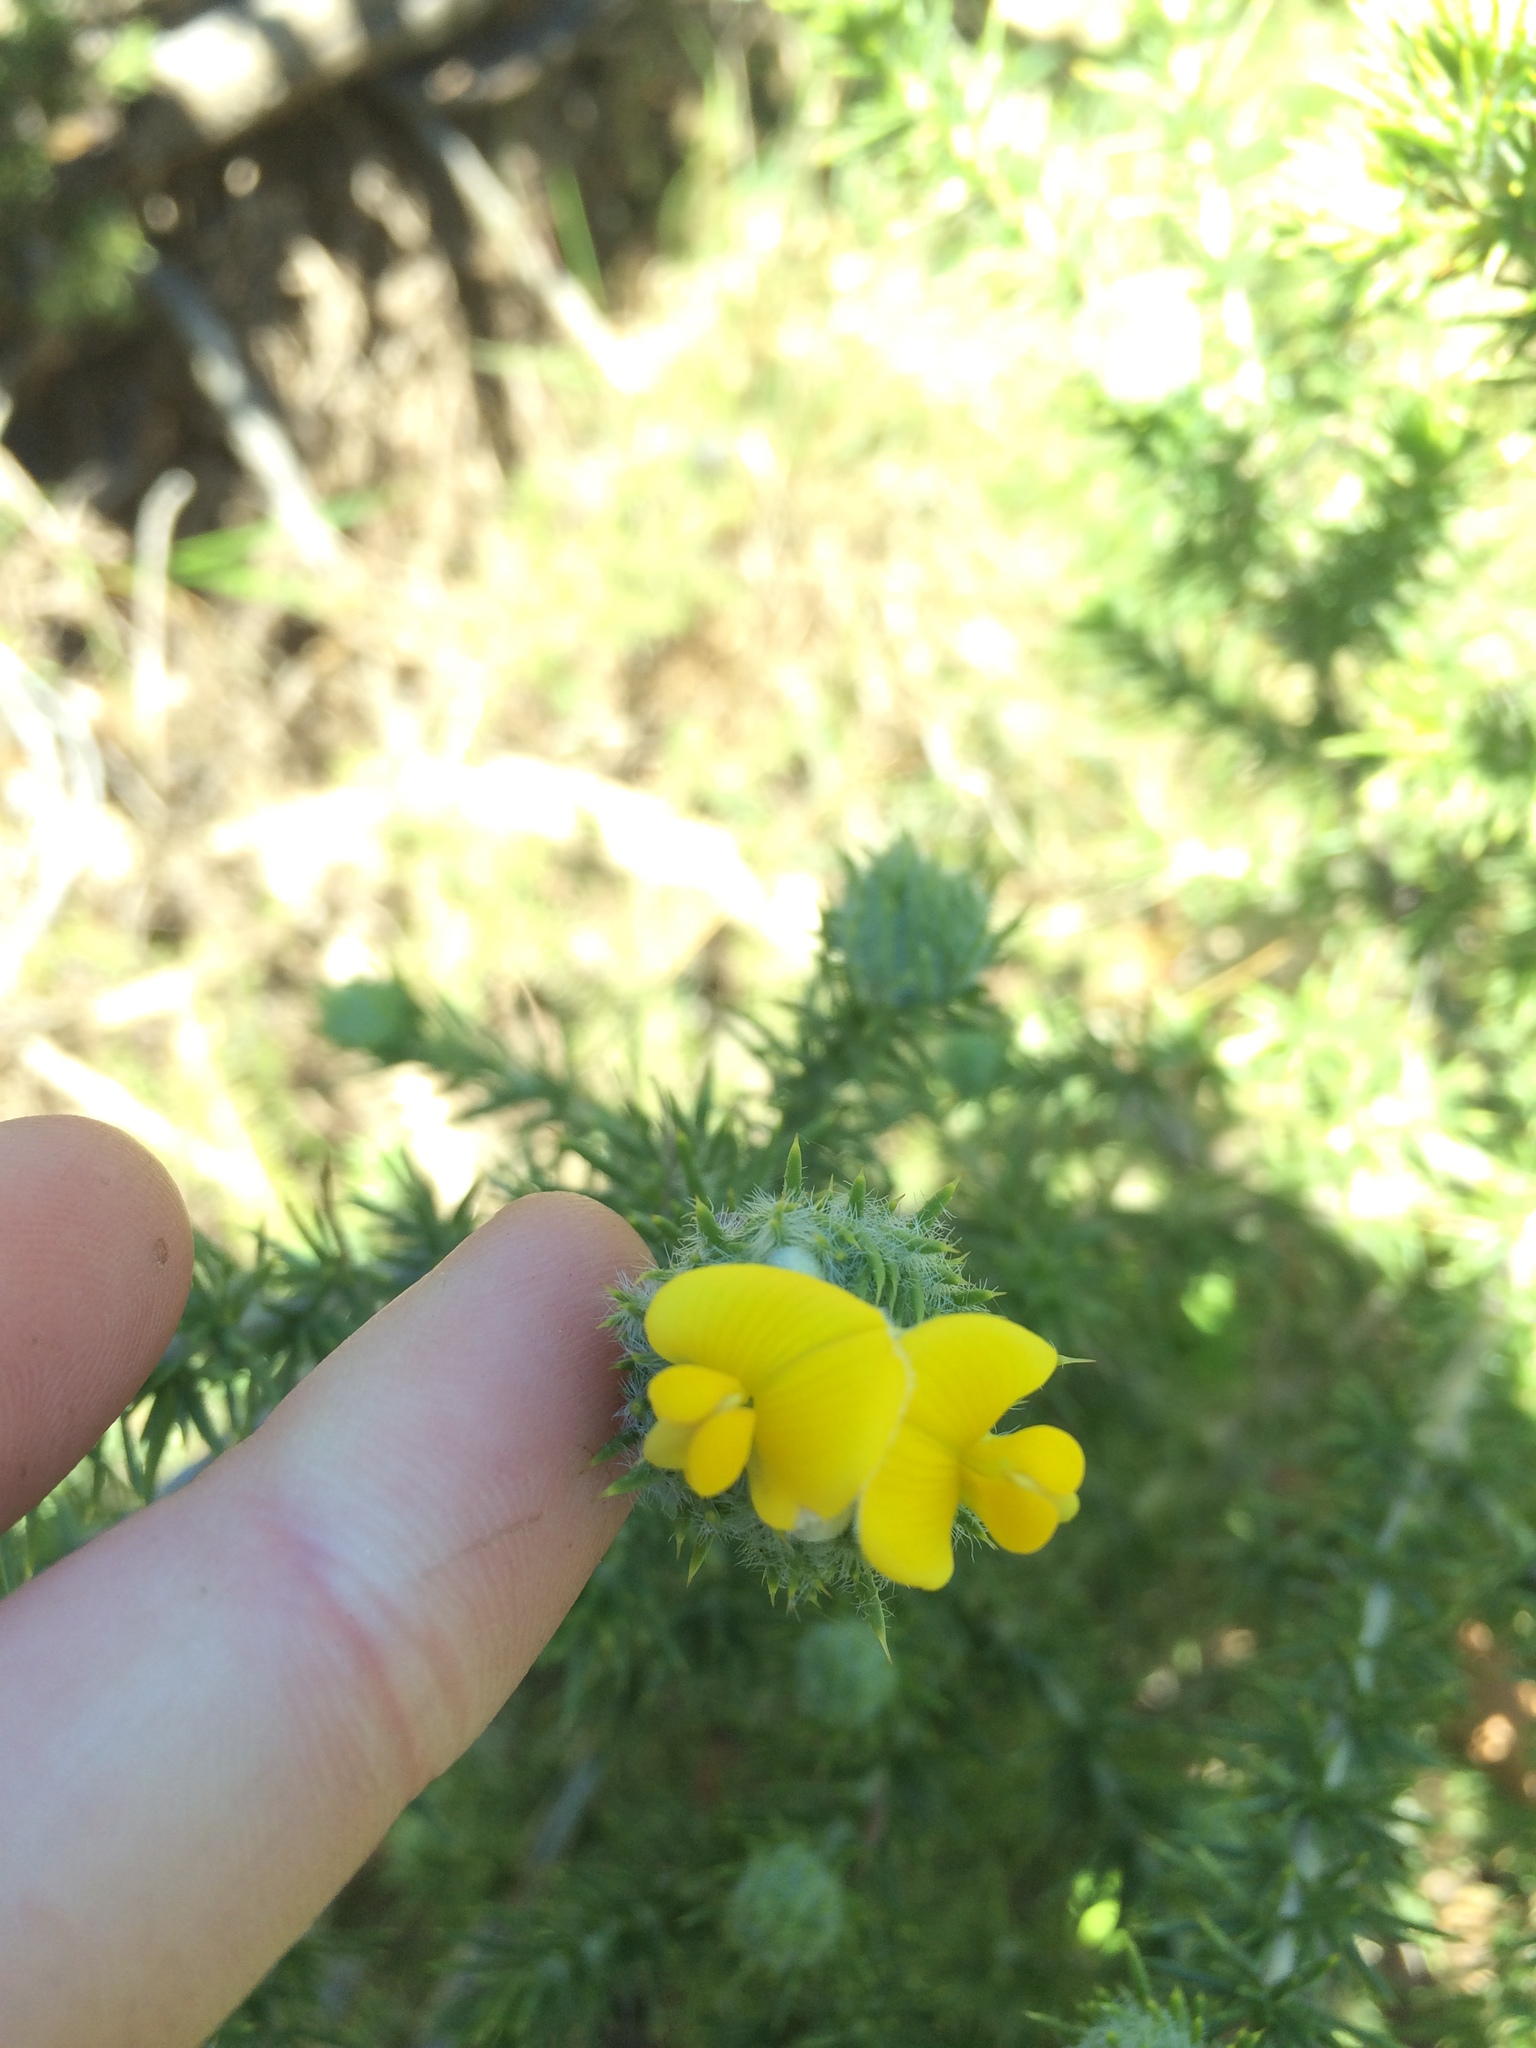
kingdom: Plantae
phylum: Tracheophyta
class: Magnoliopsida
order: Fabales
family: Fabaceae
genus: Aspalathus
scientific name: Aspalathus chenopoda
